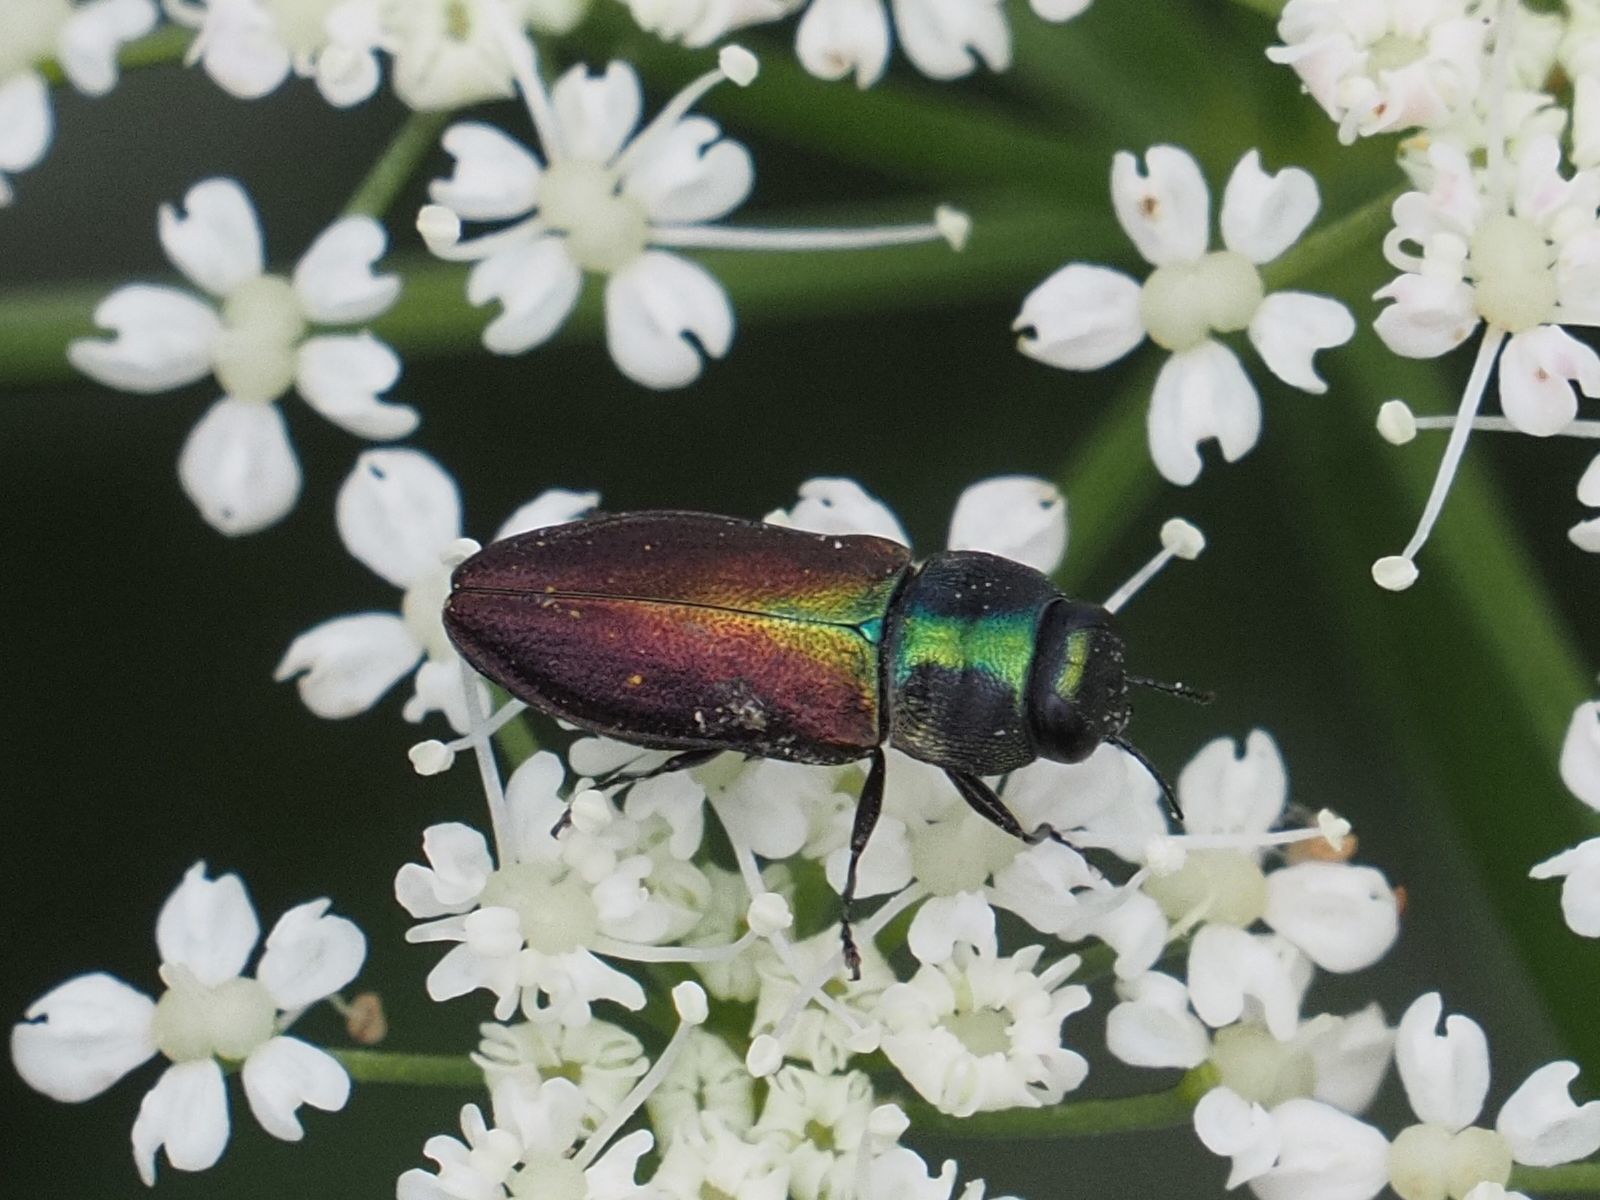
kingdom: Animalia
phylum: Arthropoda
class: Insecta
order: Coleoptera
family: Buprestidae
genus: Anthaxia
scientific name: Anthaxia podolica
